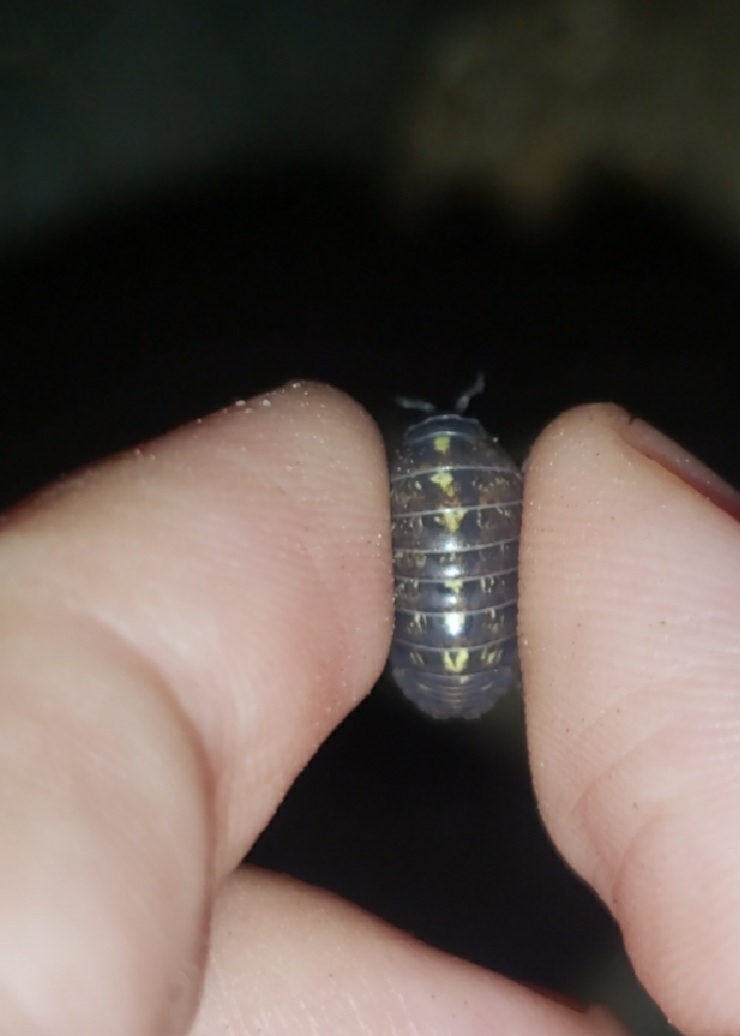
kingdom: Animalia
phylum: Arthropoda
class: Malacostraca
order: Isopoda
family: Armadillidiidae
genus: Armadillidium
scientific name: Armadillidium vulgare
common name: Common pill woodlouse
